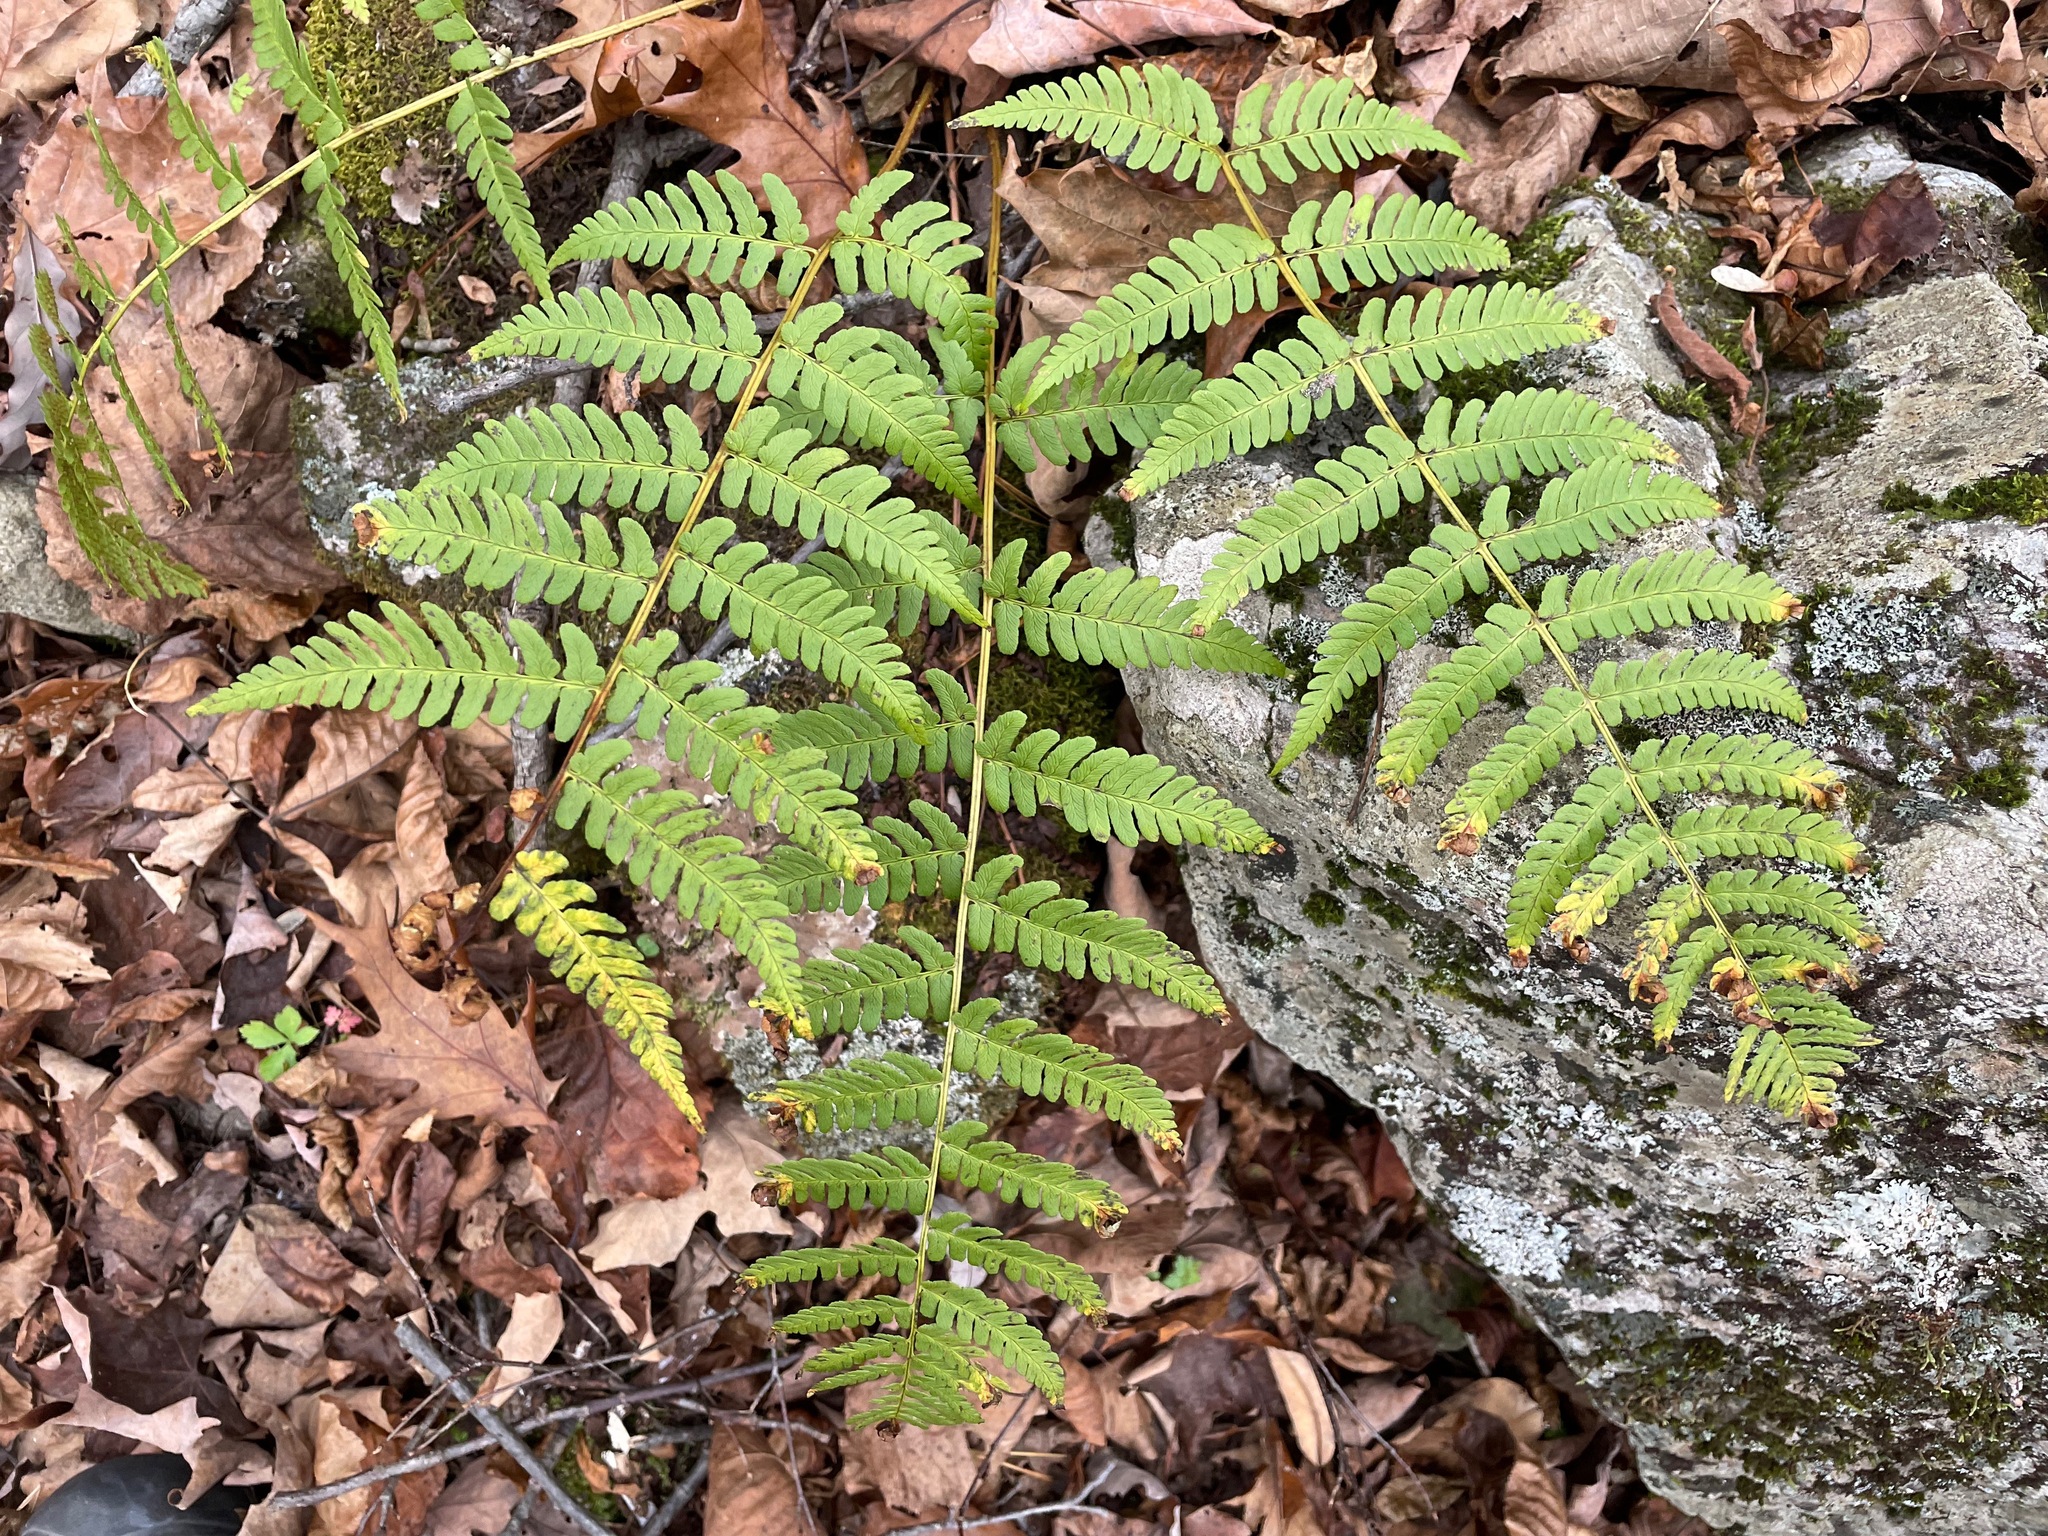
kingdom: Plantae
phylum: Tracheophyta
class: Polypodiopsida
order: Polypodiales
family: Dryopteridaceae
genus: Dryopteris
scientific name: Dryopteris marginalis
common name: Marginal wood fern
